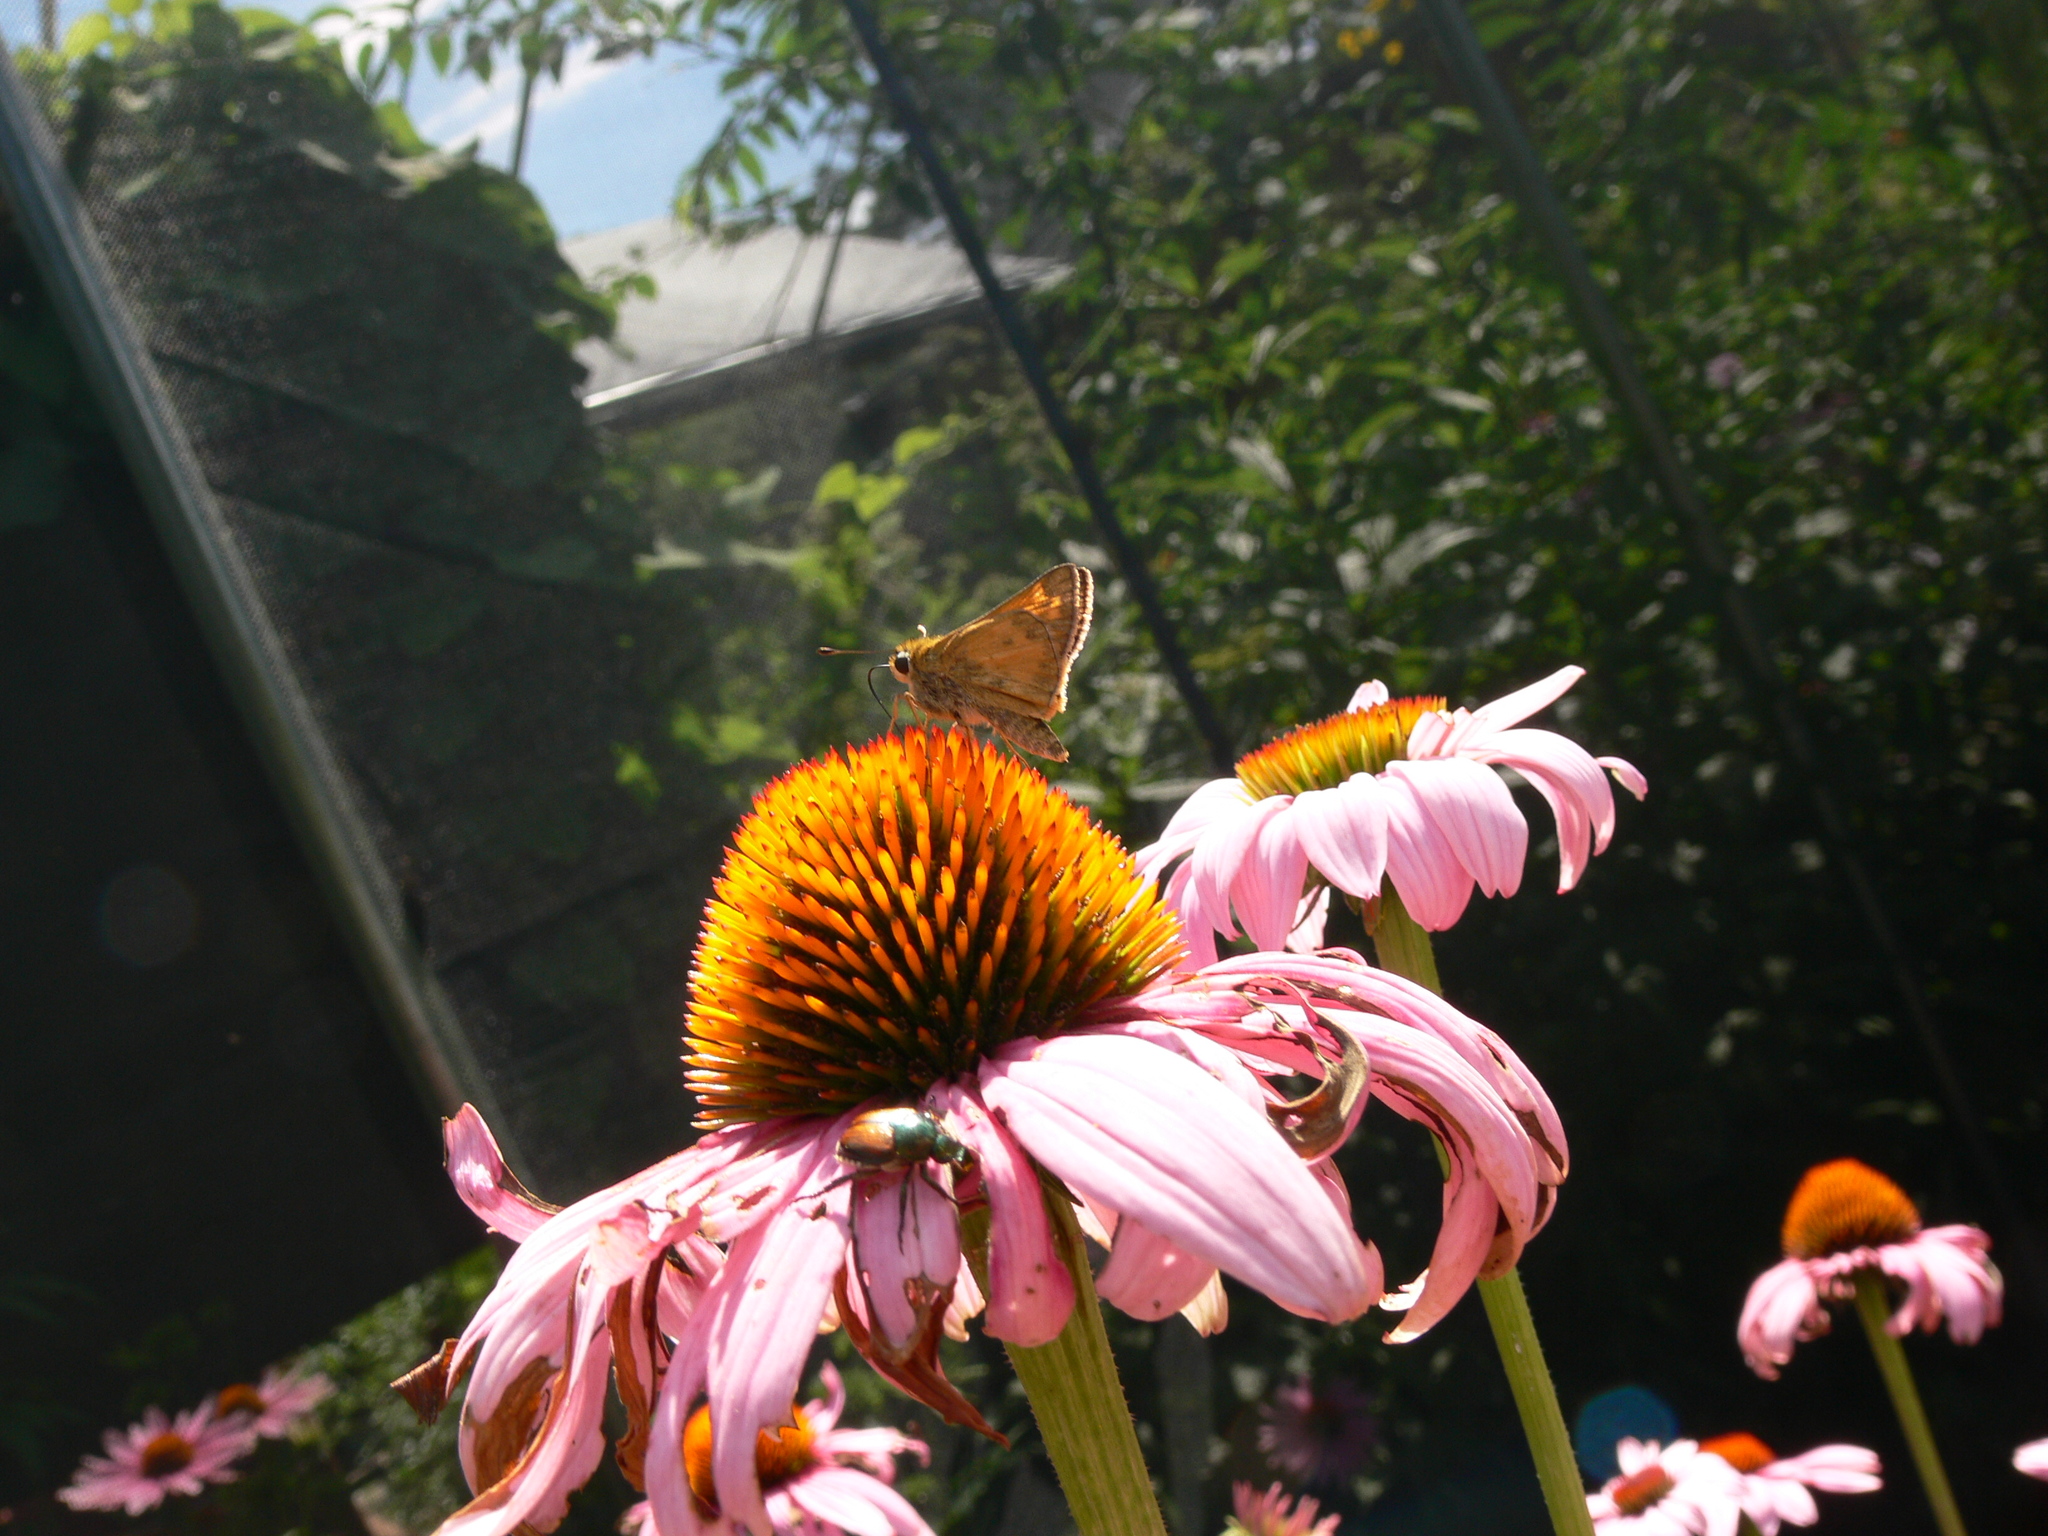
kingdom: Animalia
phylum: Arthropoda
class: Insecta
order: Lepidoptera
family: Hesperiidae
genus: Atalopedes
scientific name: Atalopedes
